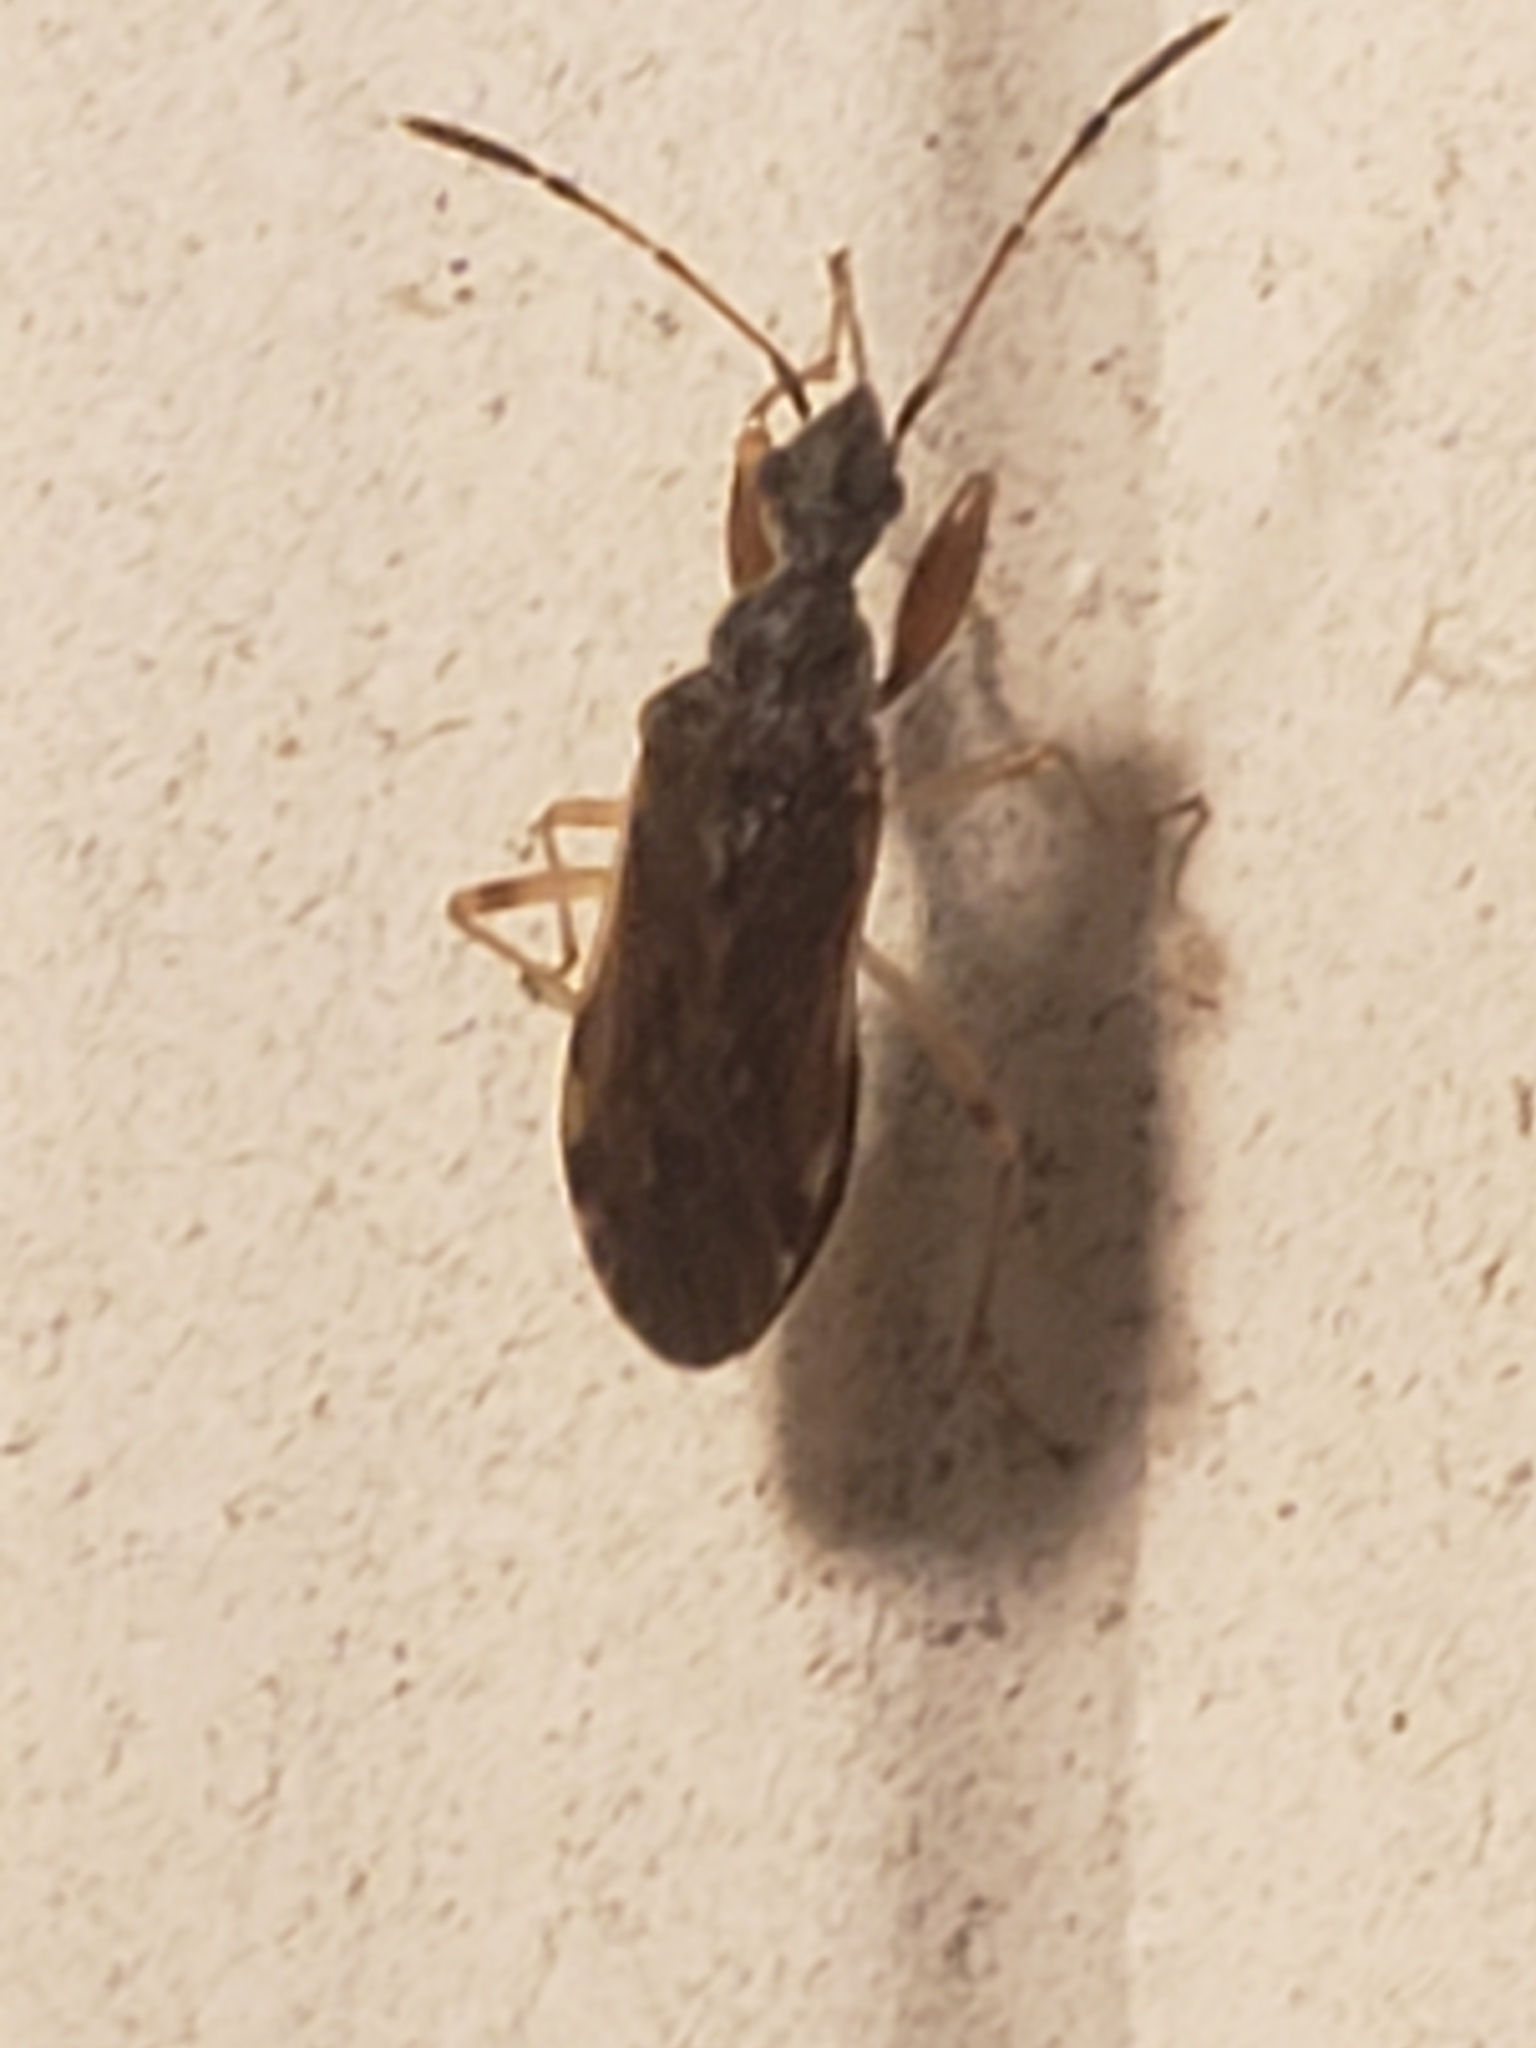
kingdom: Animalia
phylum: Arthropoda
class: Insecta
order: Hemiptera
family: Rhyparochromidae
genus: Heraeus
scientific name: Heraeus plebejus
